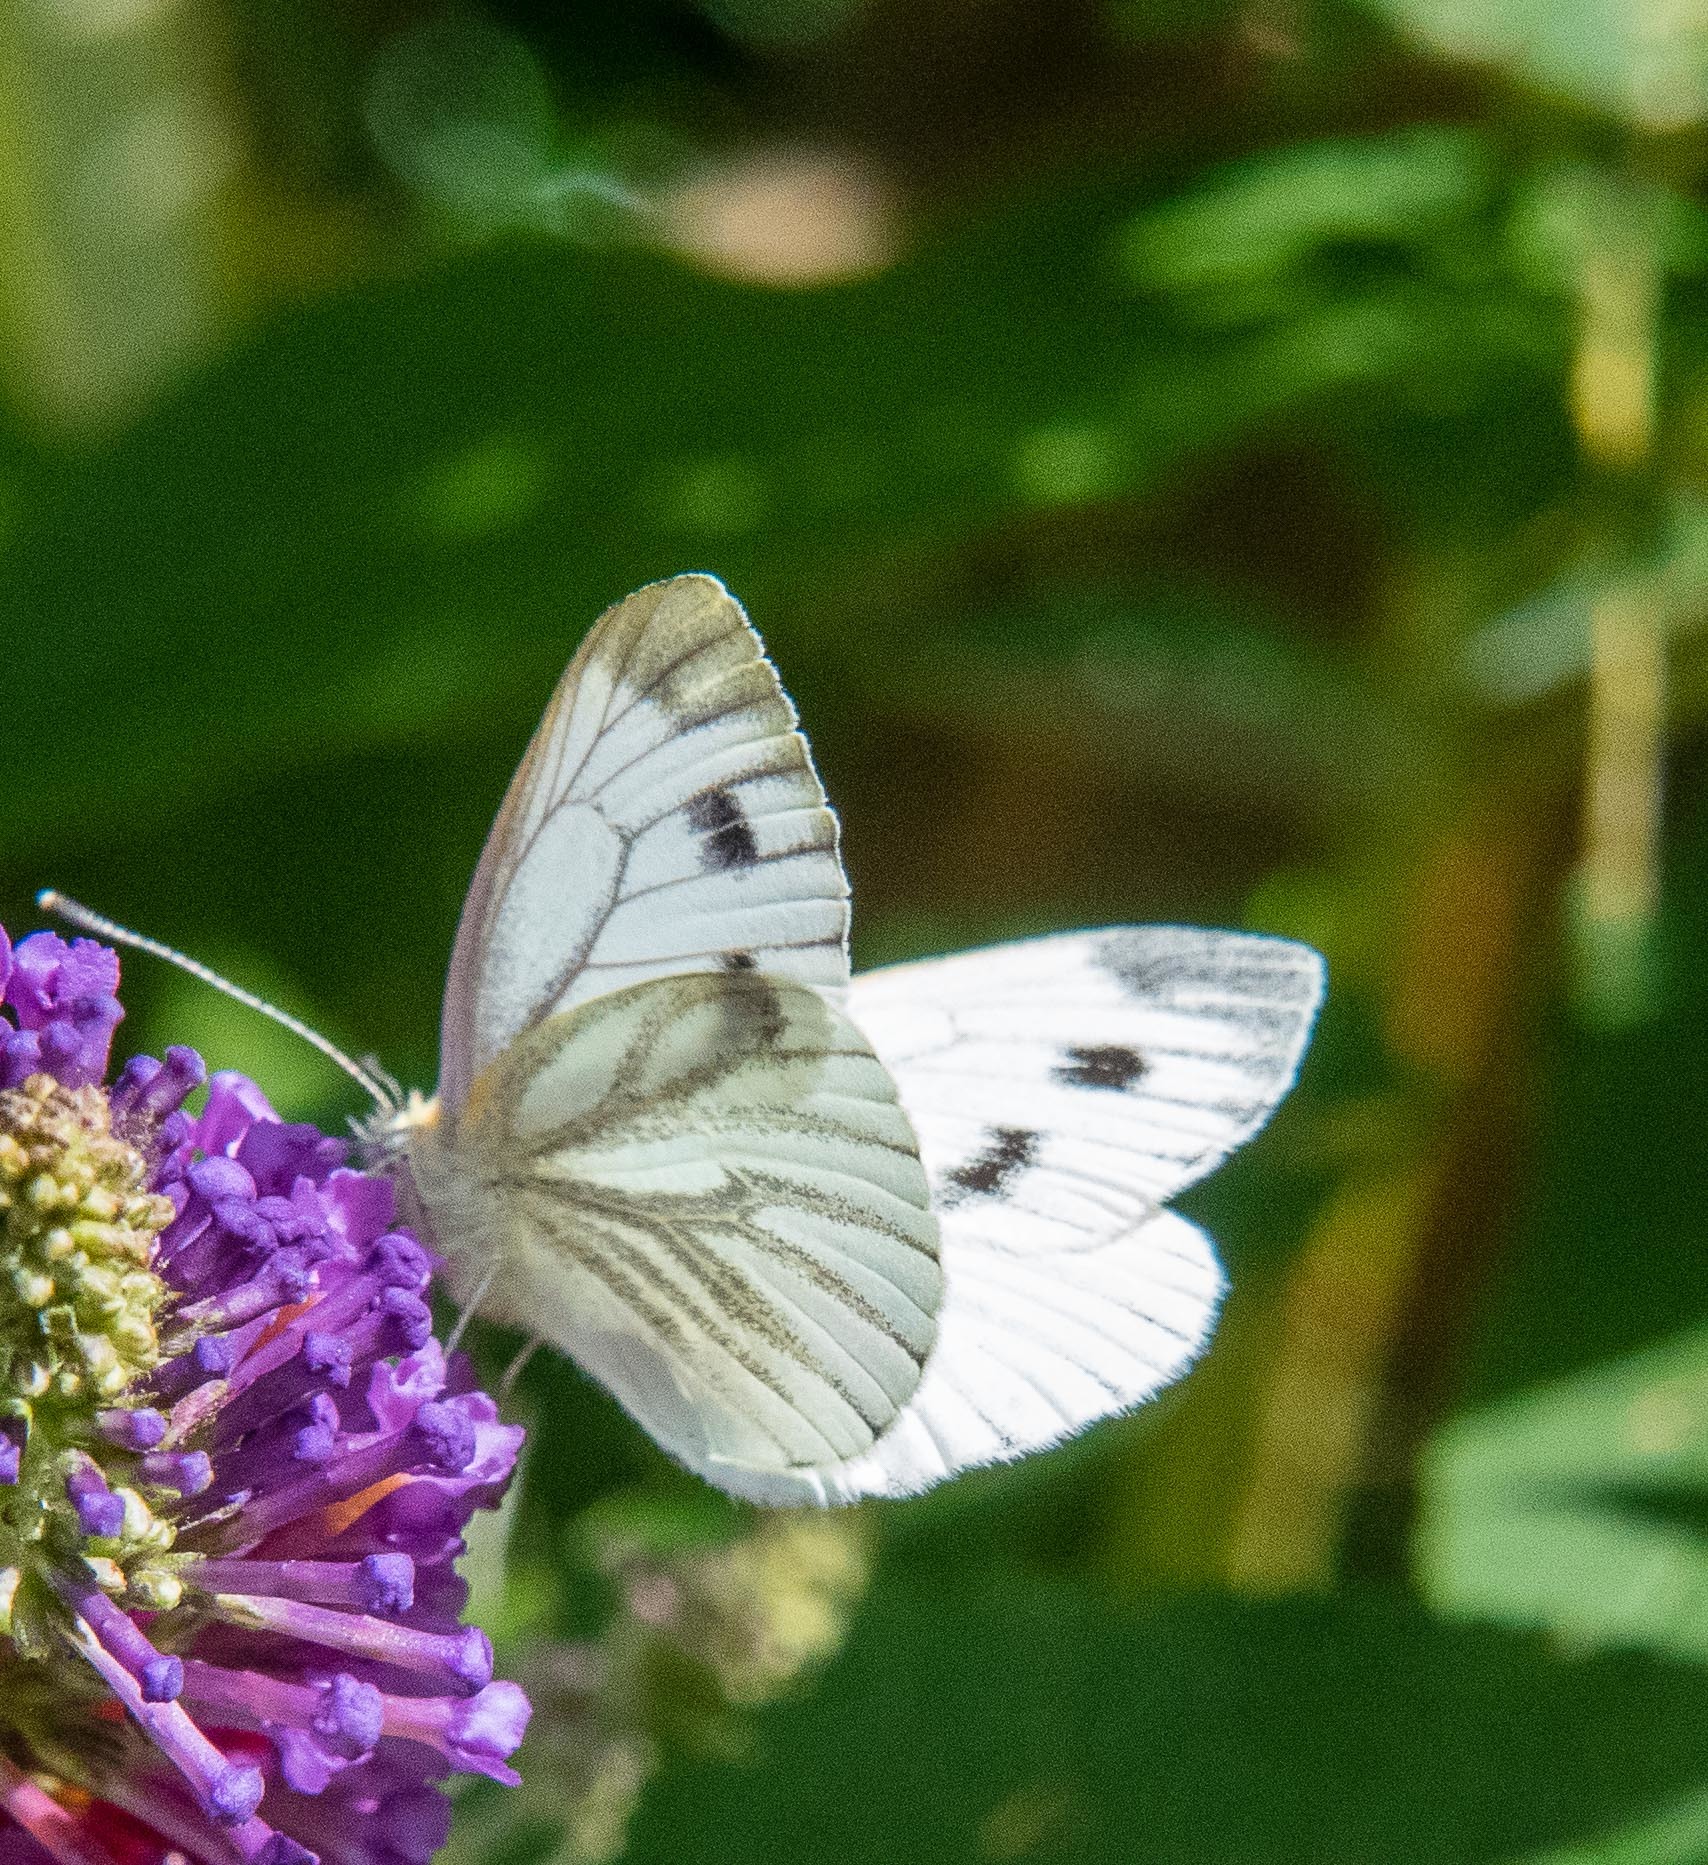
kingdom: Animalia
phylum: Arthropoda
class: Insecta
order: Lepidoptera
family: Pieridae
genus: Pieris
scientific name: Pieris napi
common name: Green-veined white
